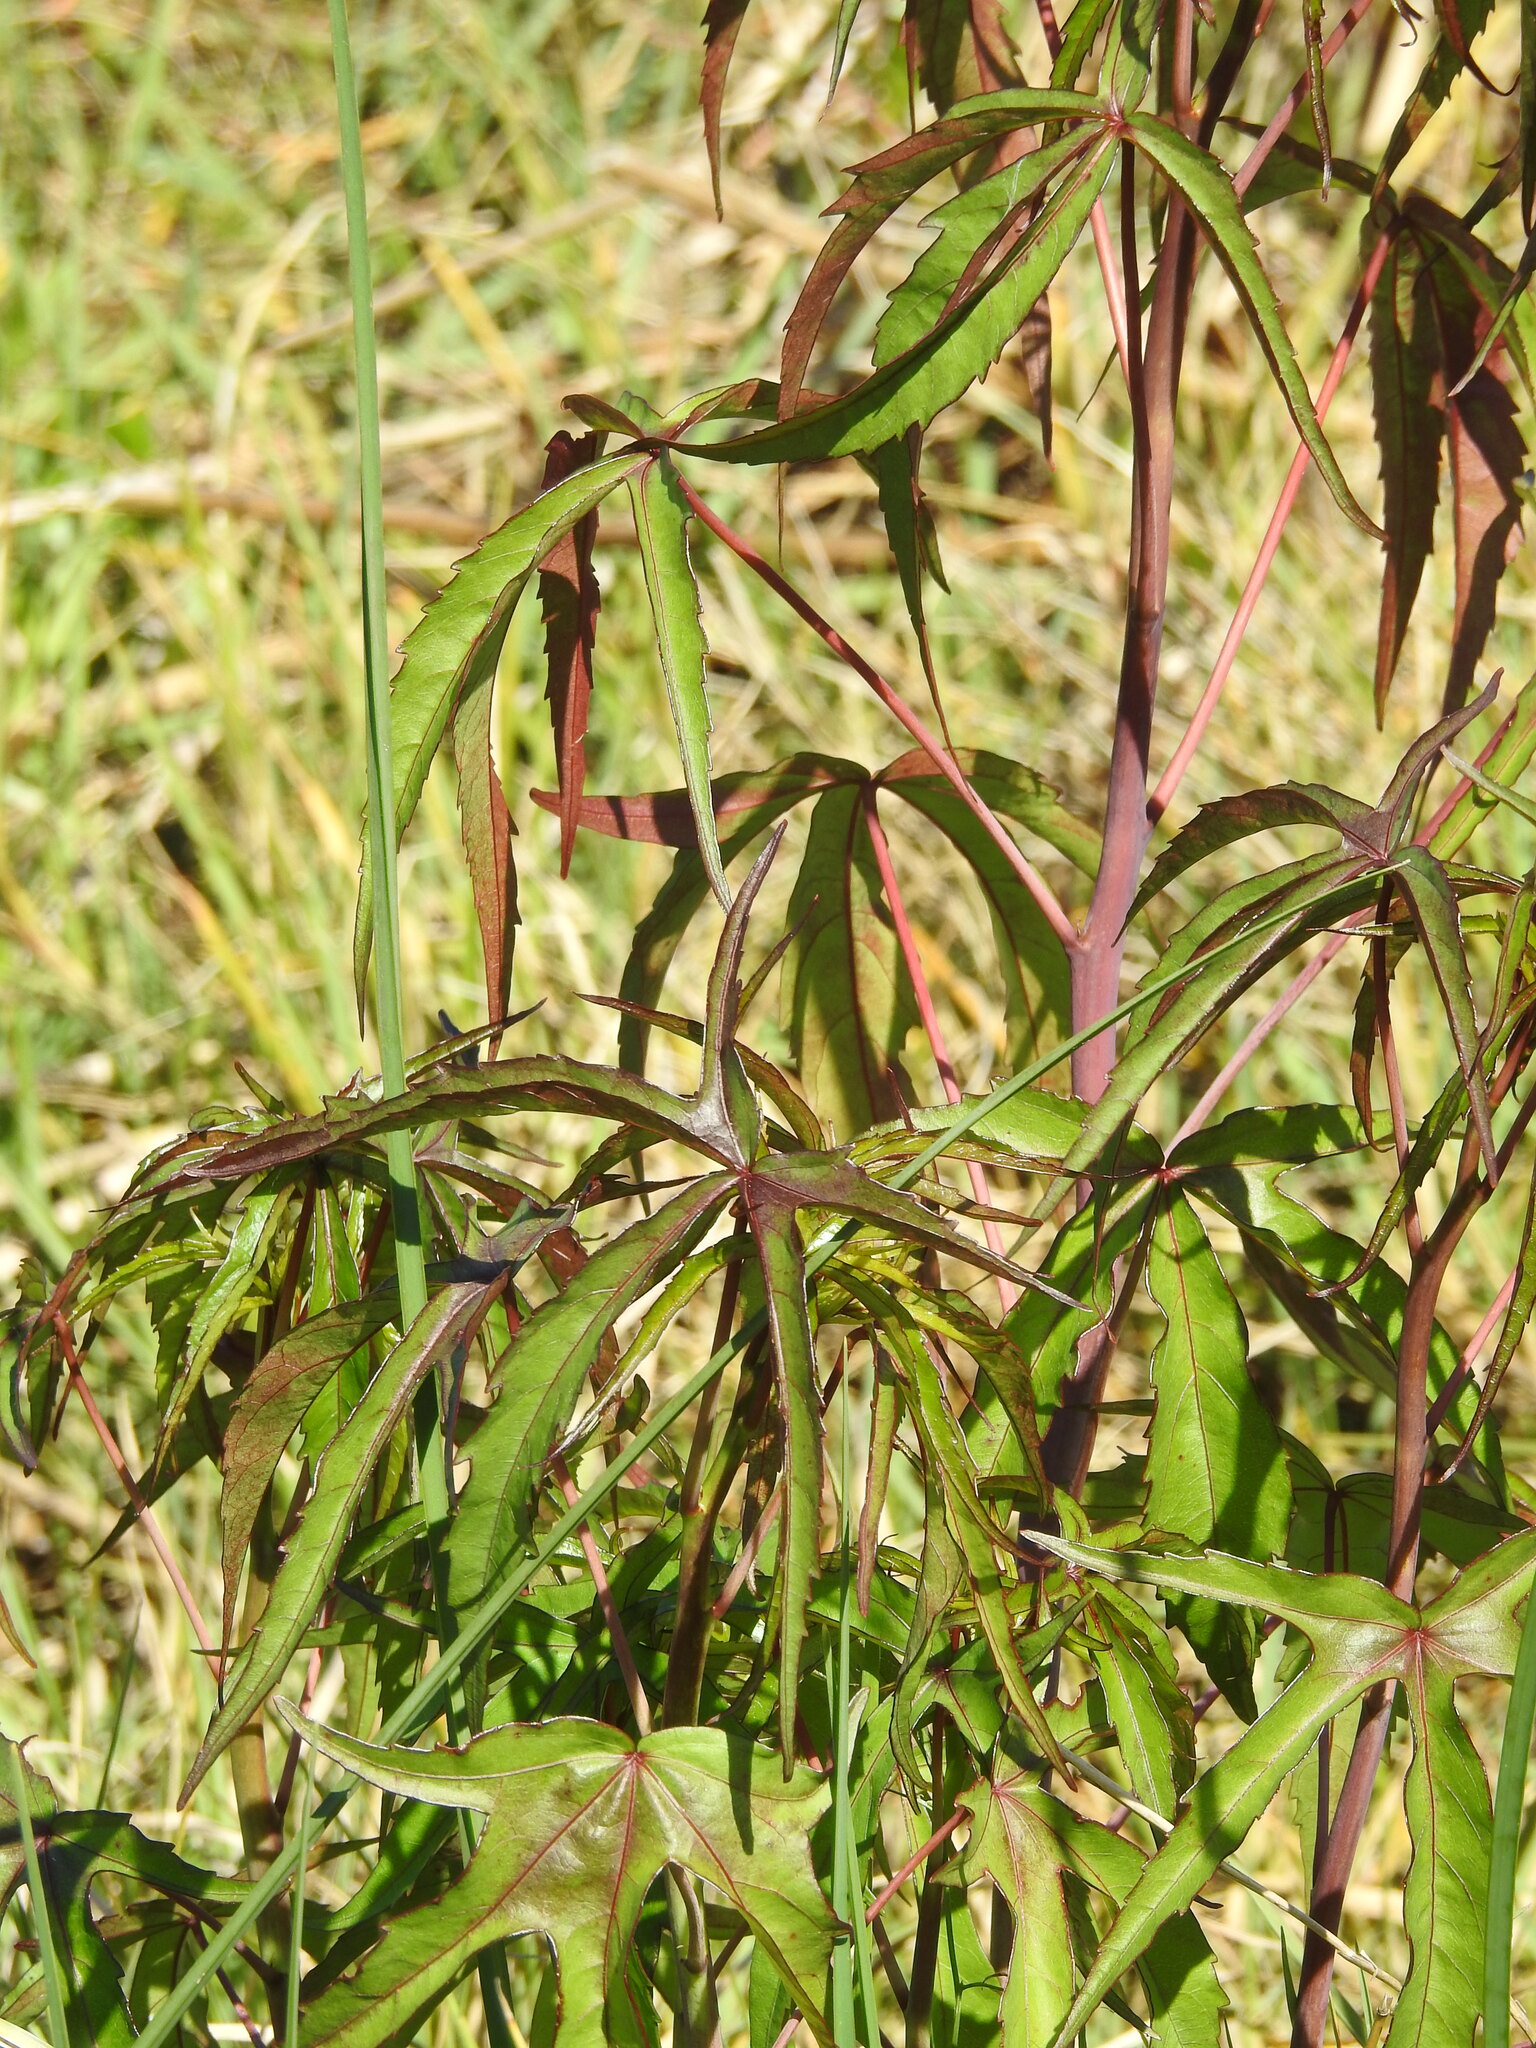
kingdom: Plantae
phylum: Tracheophyta
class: Magnoliopsida
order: Malvales
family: Malvaceae
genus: Hibiscus
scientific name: Hibiscus coccineus
